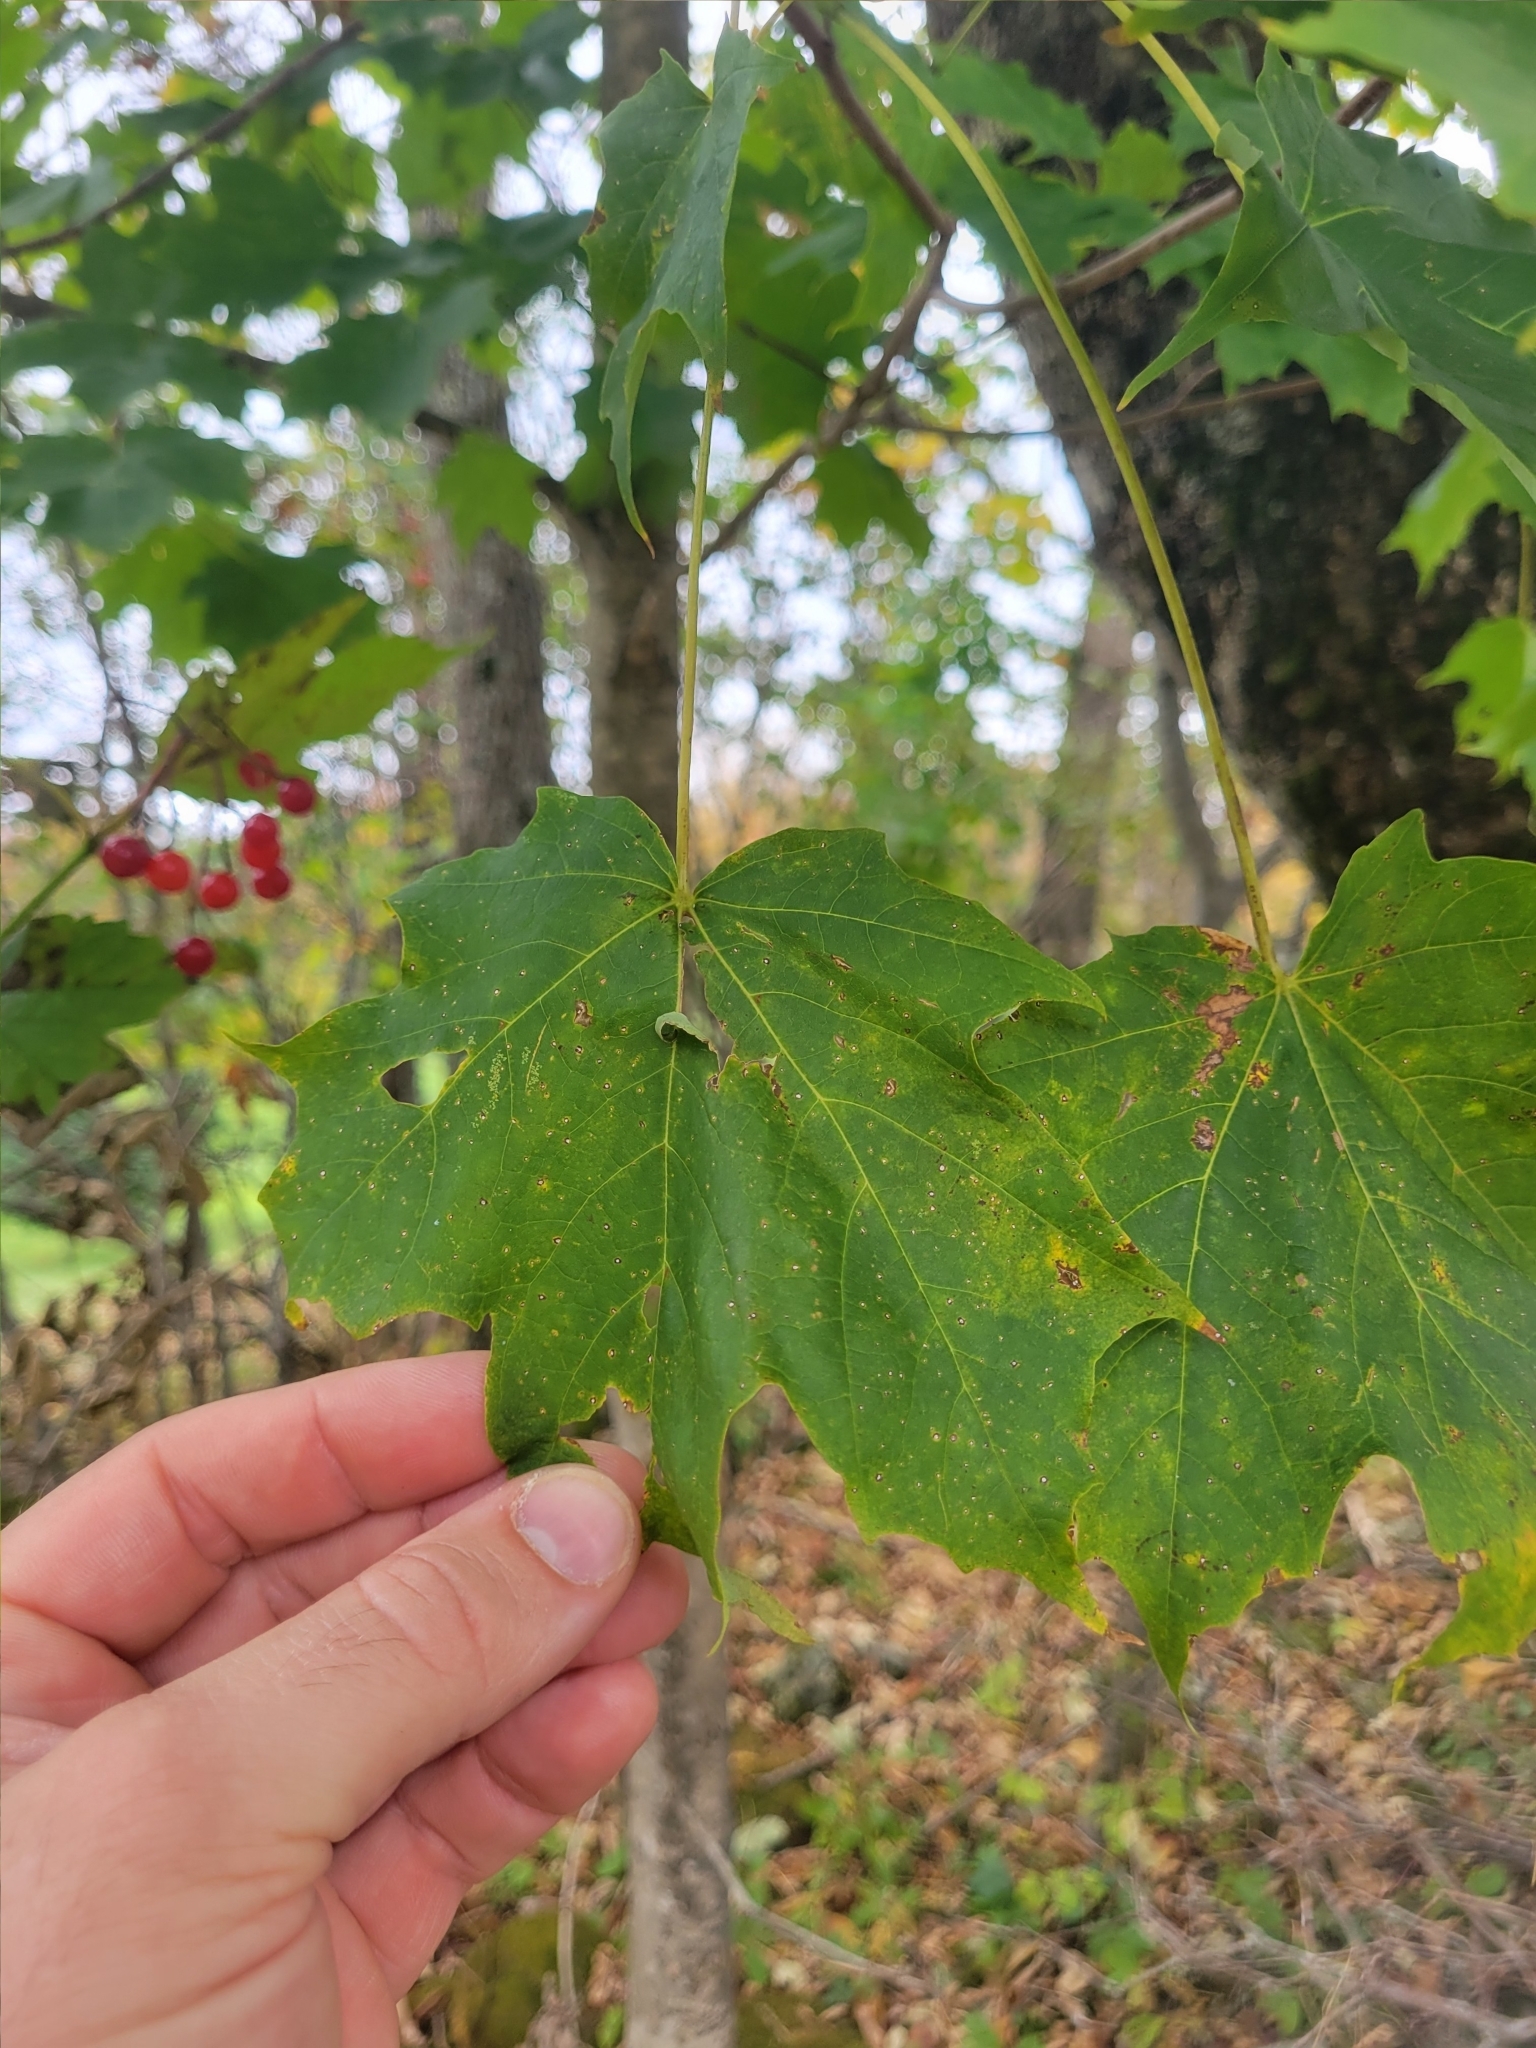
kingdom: Plantae
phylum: Tracheophyta
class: Magnoliopsida
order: Sapindales
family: Sapindaceae
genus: Acer
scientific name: Acer saccharum
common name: Sugar maple
